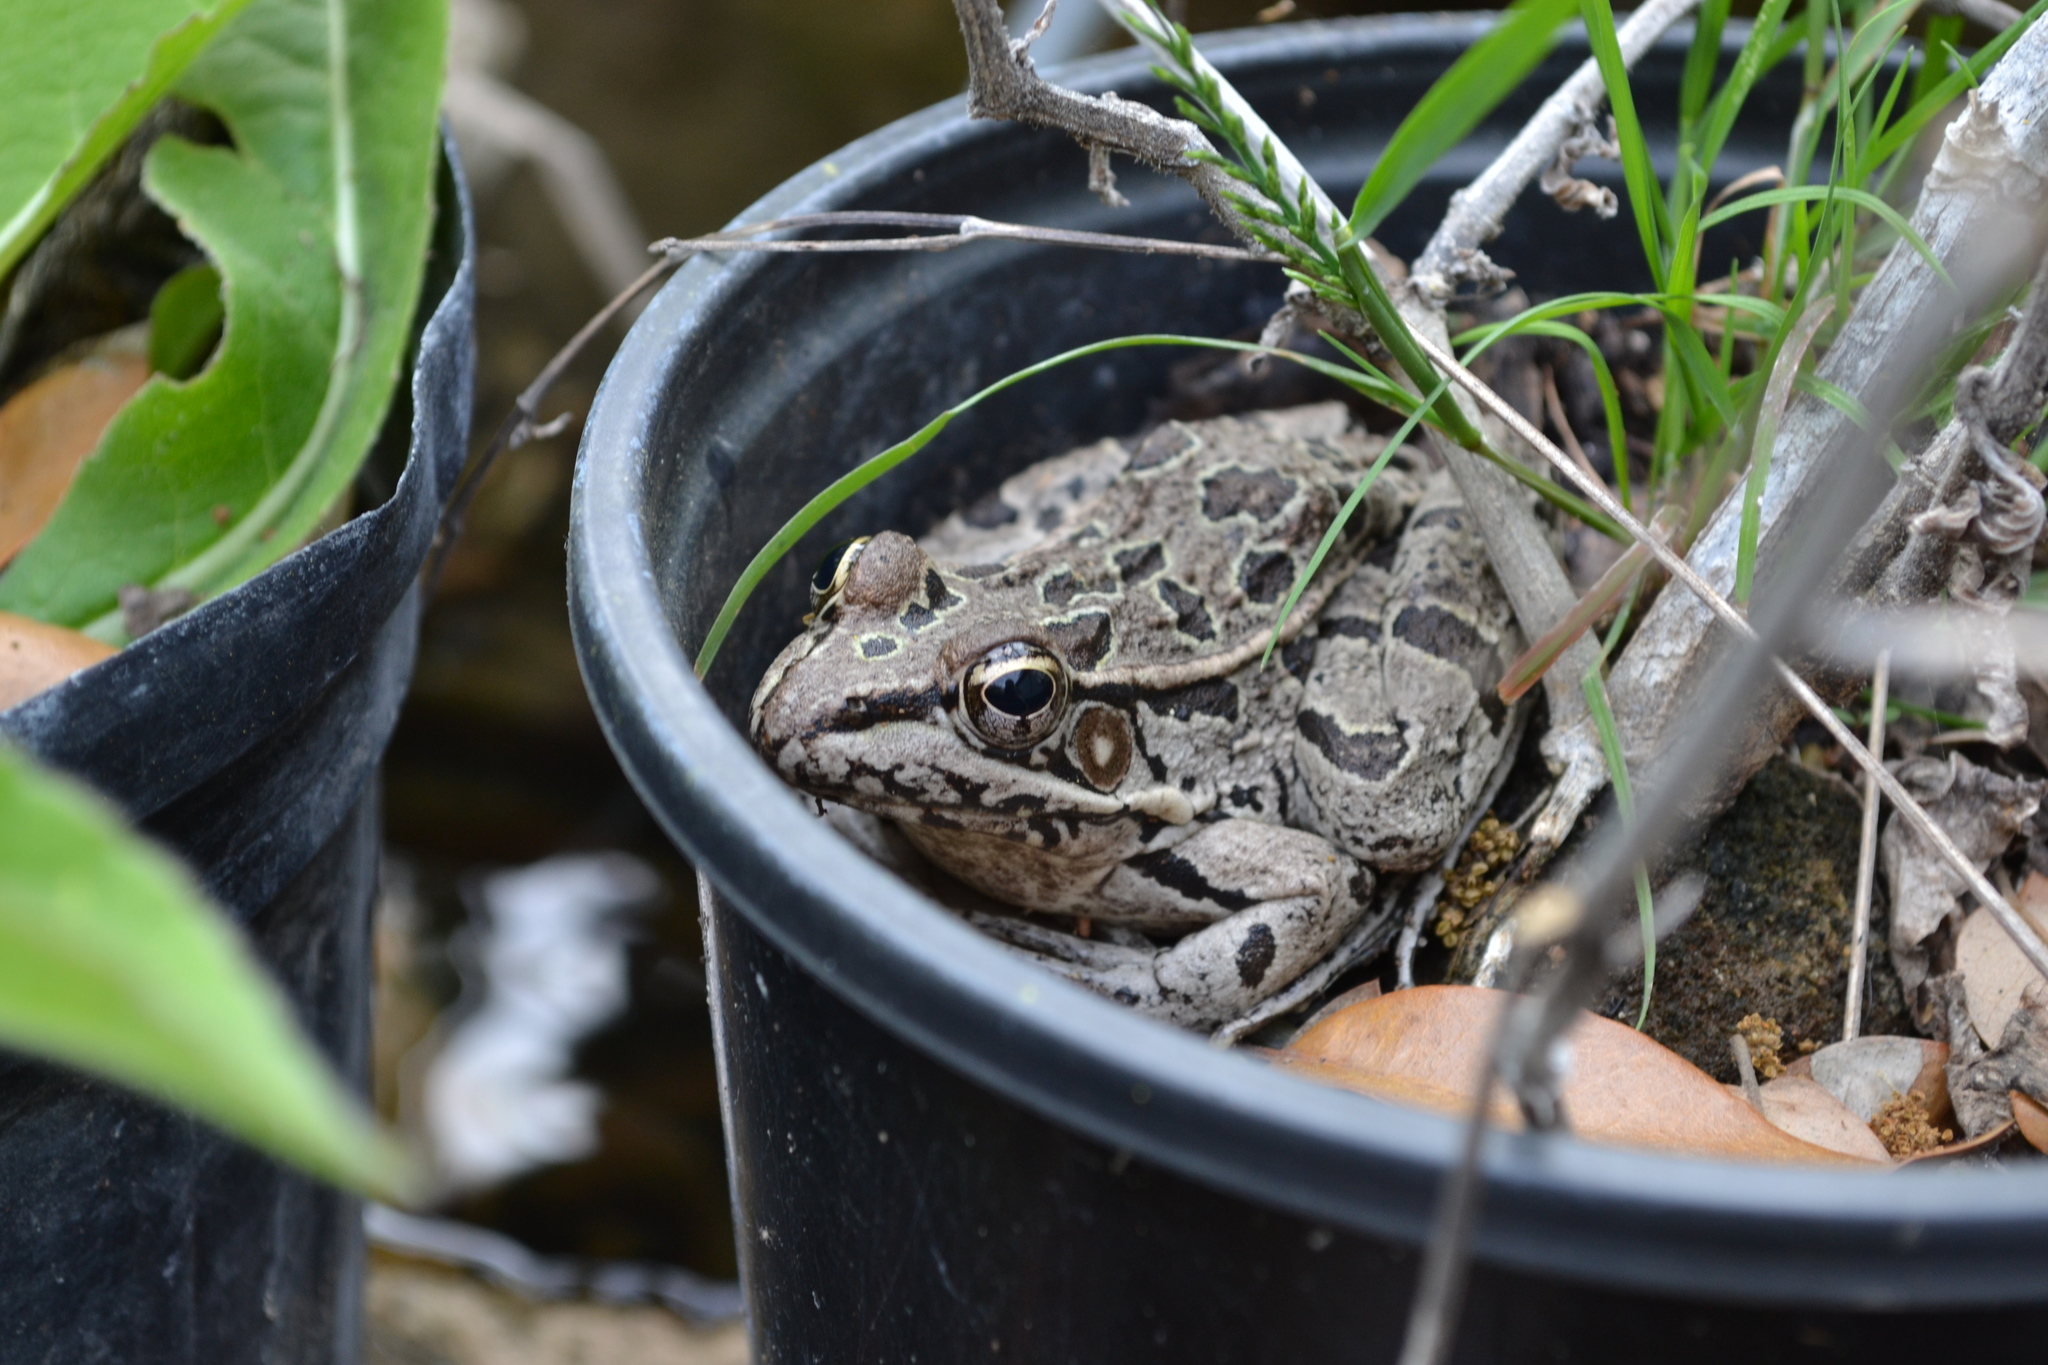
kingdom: Animalia
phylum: Chordata
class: Amphibia
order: Anura
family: Ranidae
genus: Lithobates
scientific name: Lithobates berlandieri
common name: Rio grande leopard frog
